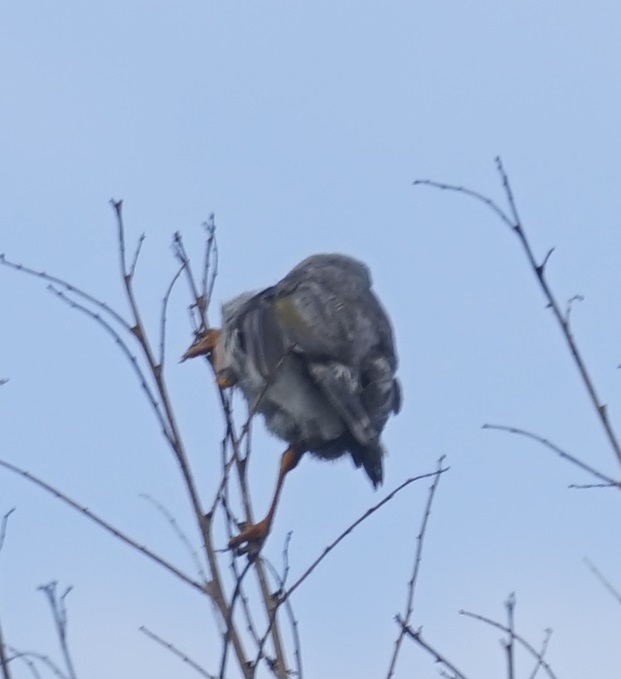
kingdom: Animalia
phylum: Chordata
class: Aves
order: Passeriformes
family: Meliphagidae
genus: Manorina
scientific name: Manorina melanocephala
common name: Noisy miner
